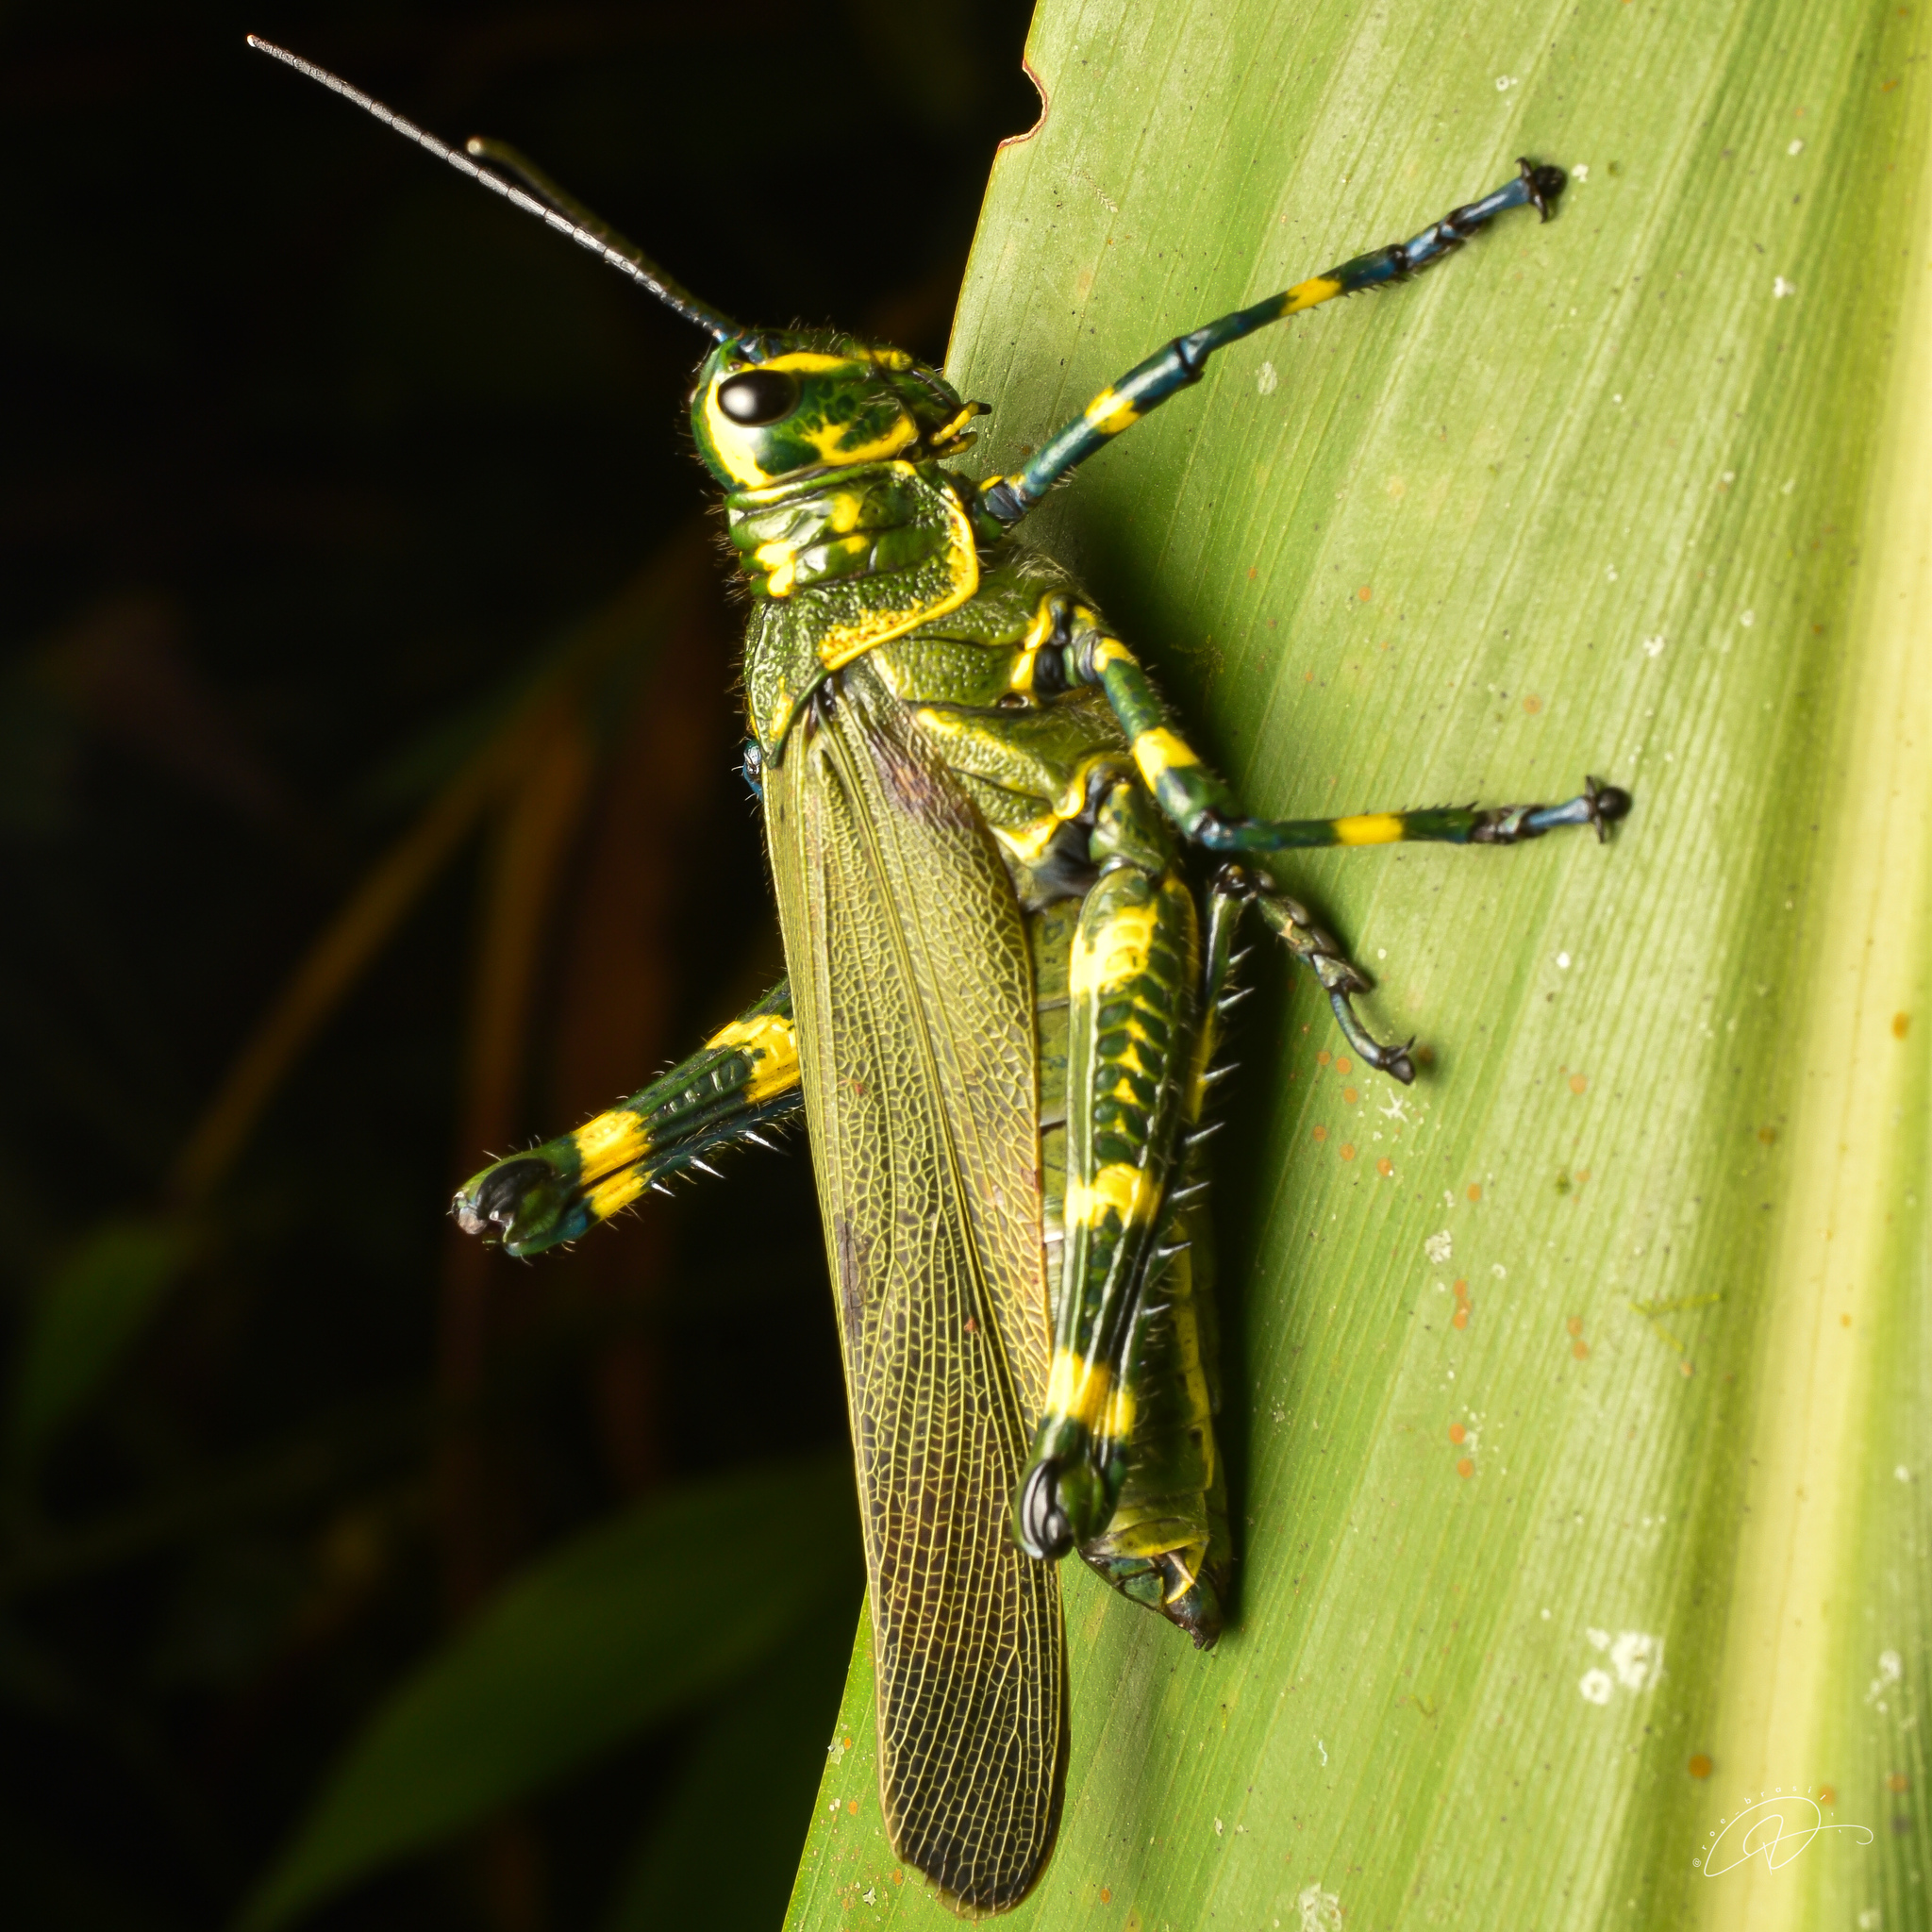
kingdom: Animalia
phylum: Arthropoda
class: Insecta
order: Orthoptera
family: Romaleidae
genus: Chromacris
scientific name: Chromacris speciosa
